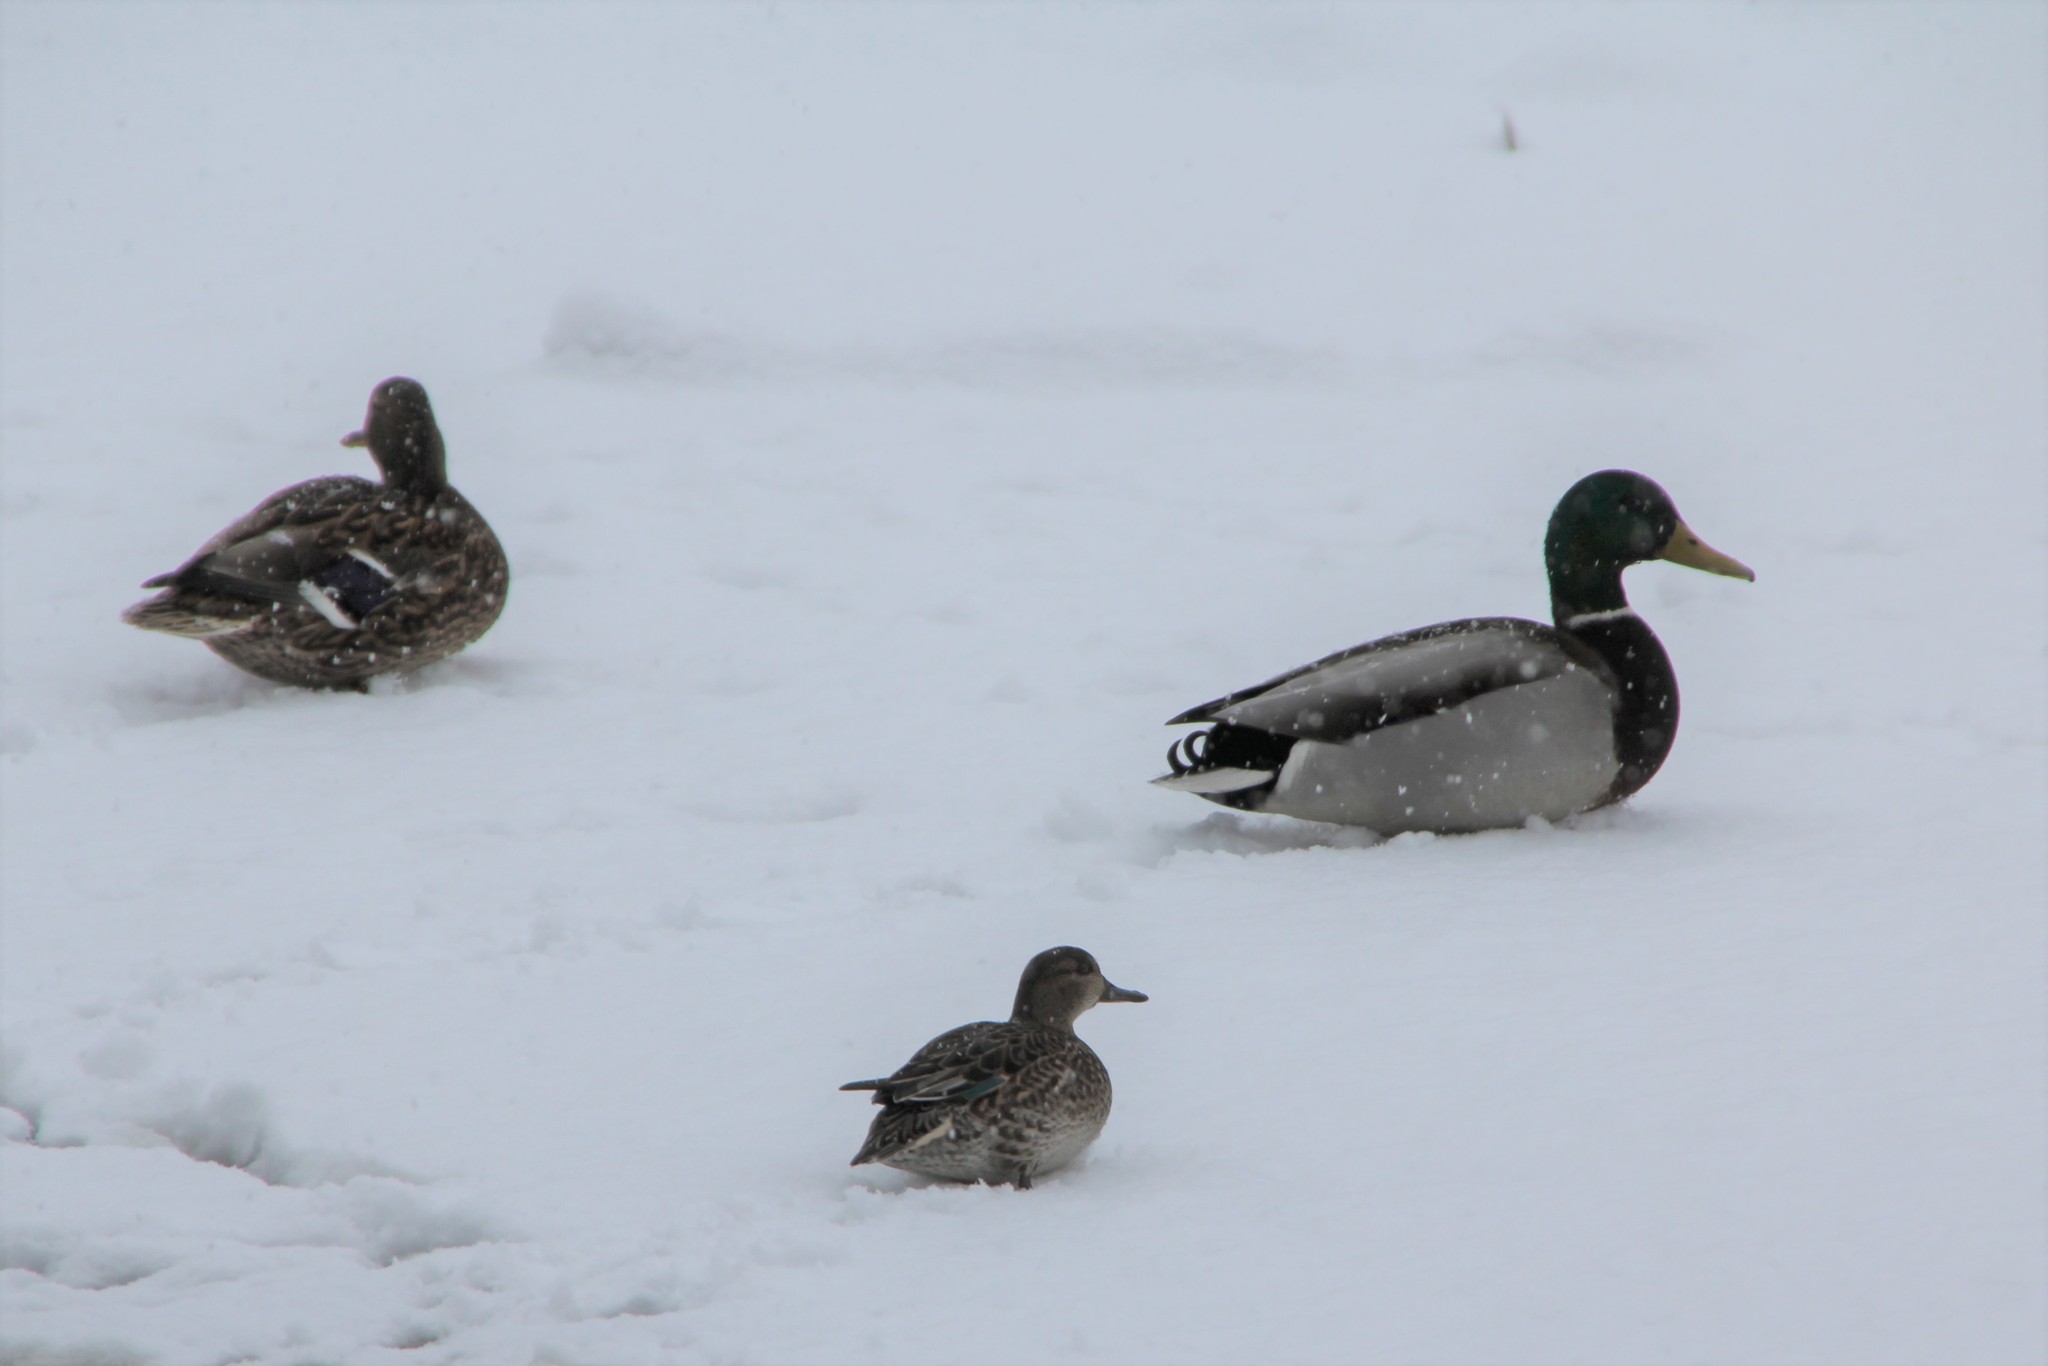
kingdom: Animalia
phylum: Chordata
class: Aves
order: Anseriformes
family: Anatidae
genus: Anas
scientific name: Anas platyrhynchos
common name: Mallard
